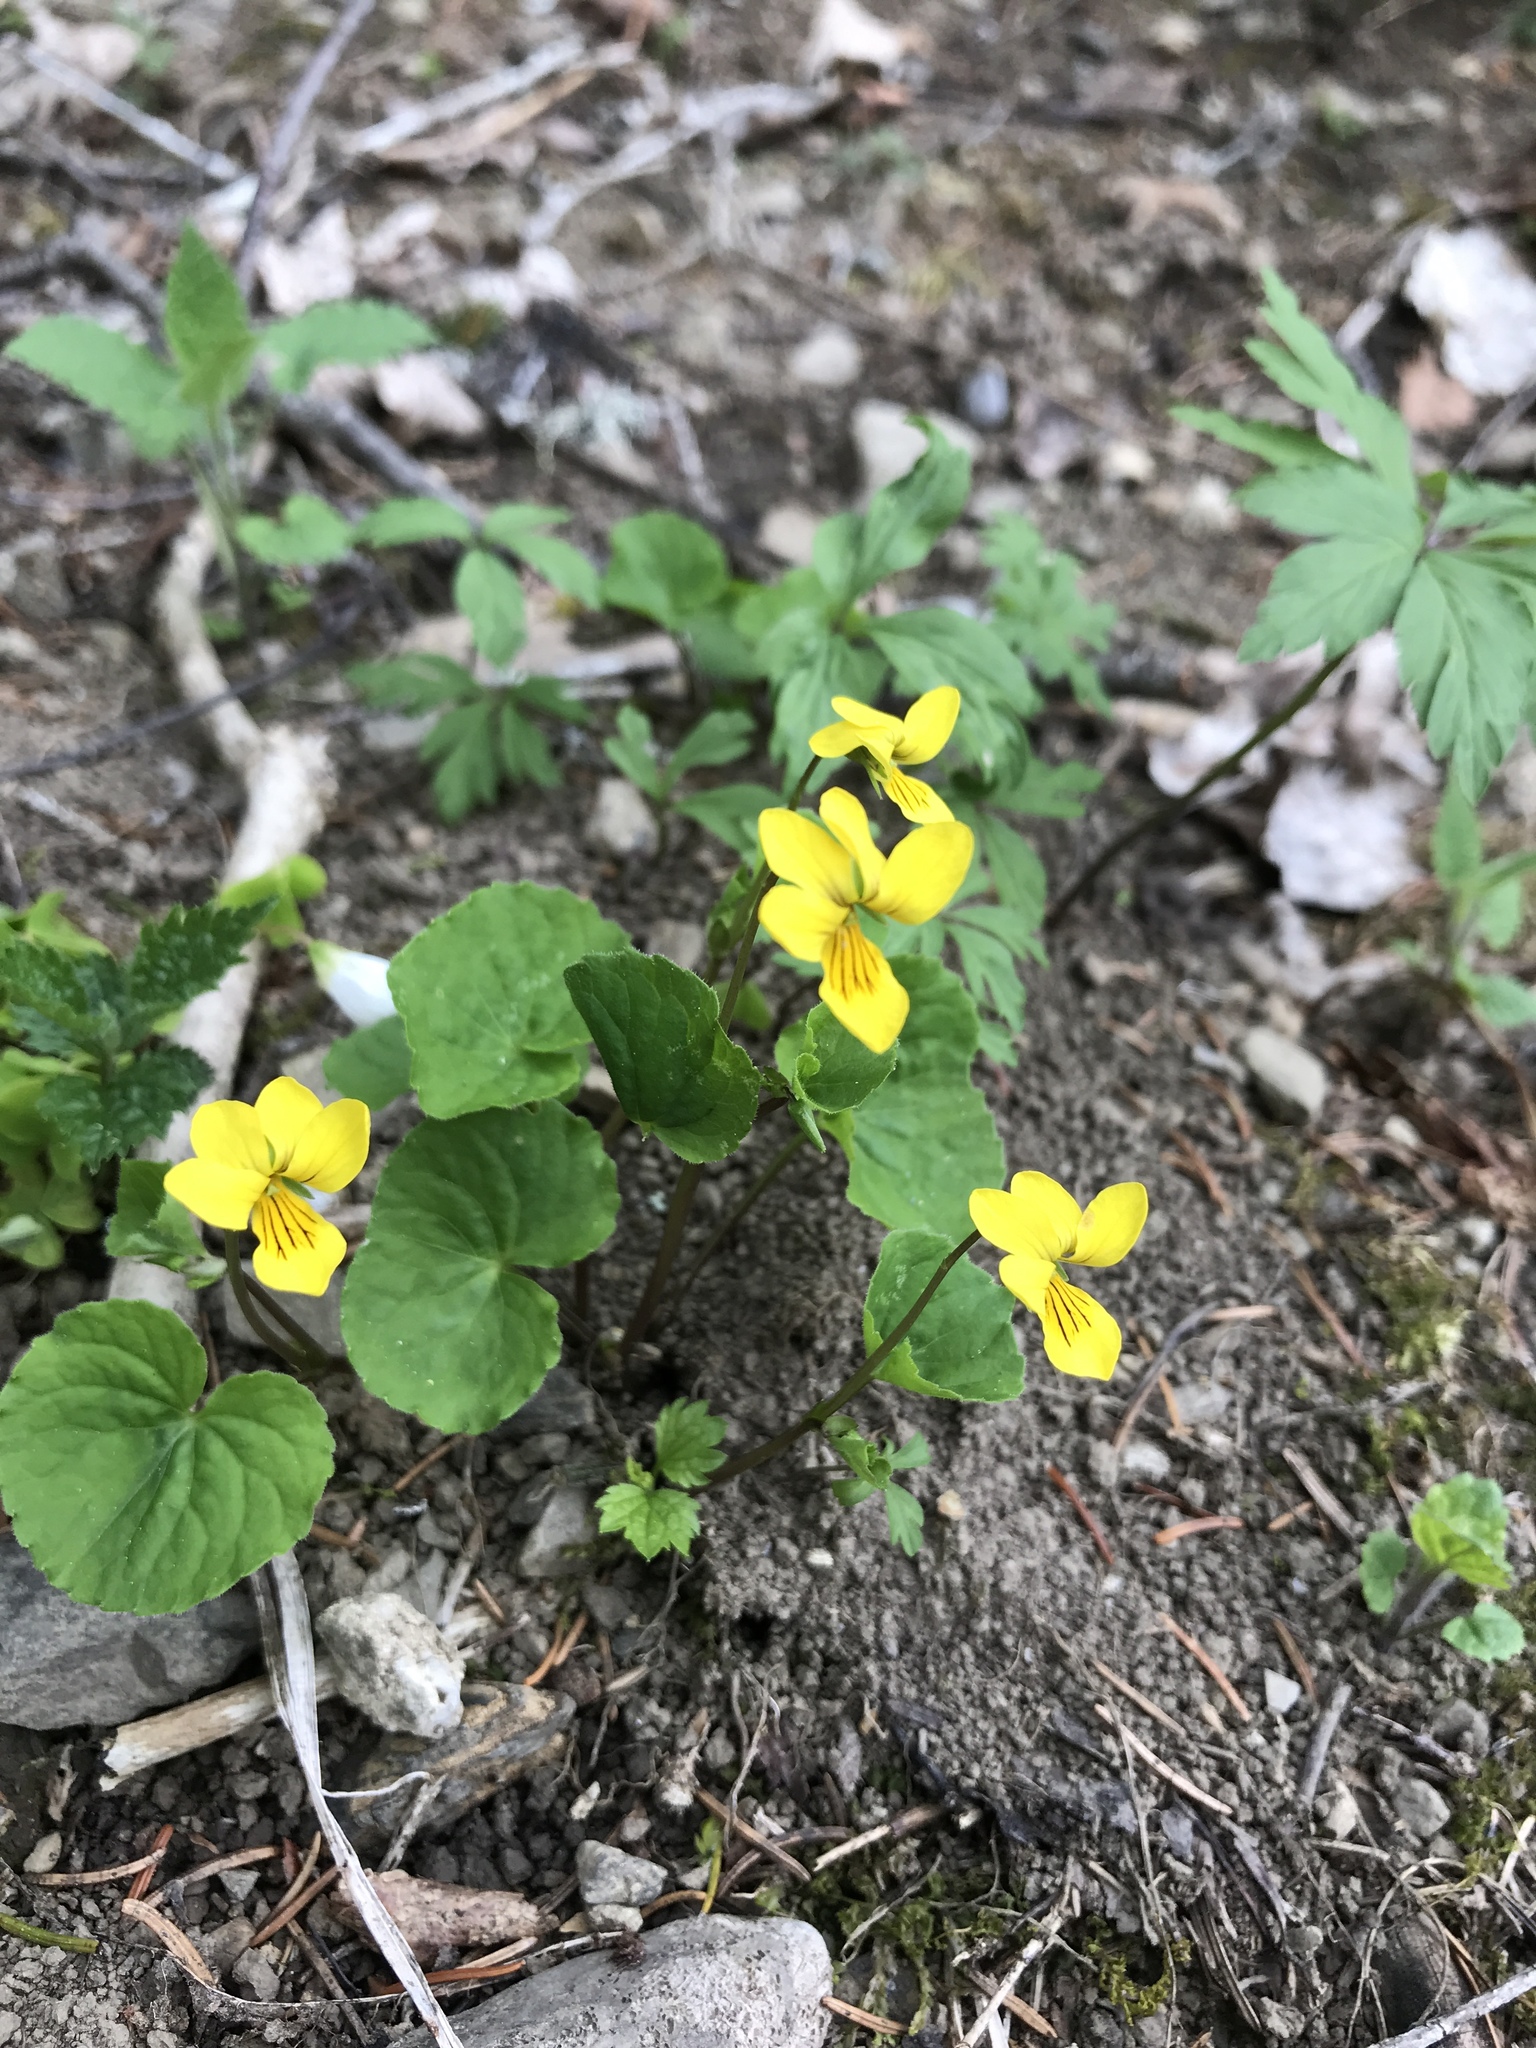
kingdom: Plantae
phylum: Tracheophyta
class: Magnoliopsida
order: Malpighiales
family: Violaceae
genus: Viola
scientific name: Viola biflora
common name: Alpine yellow violet
